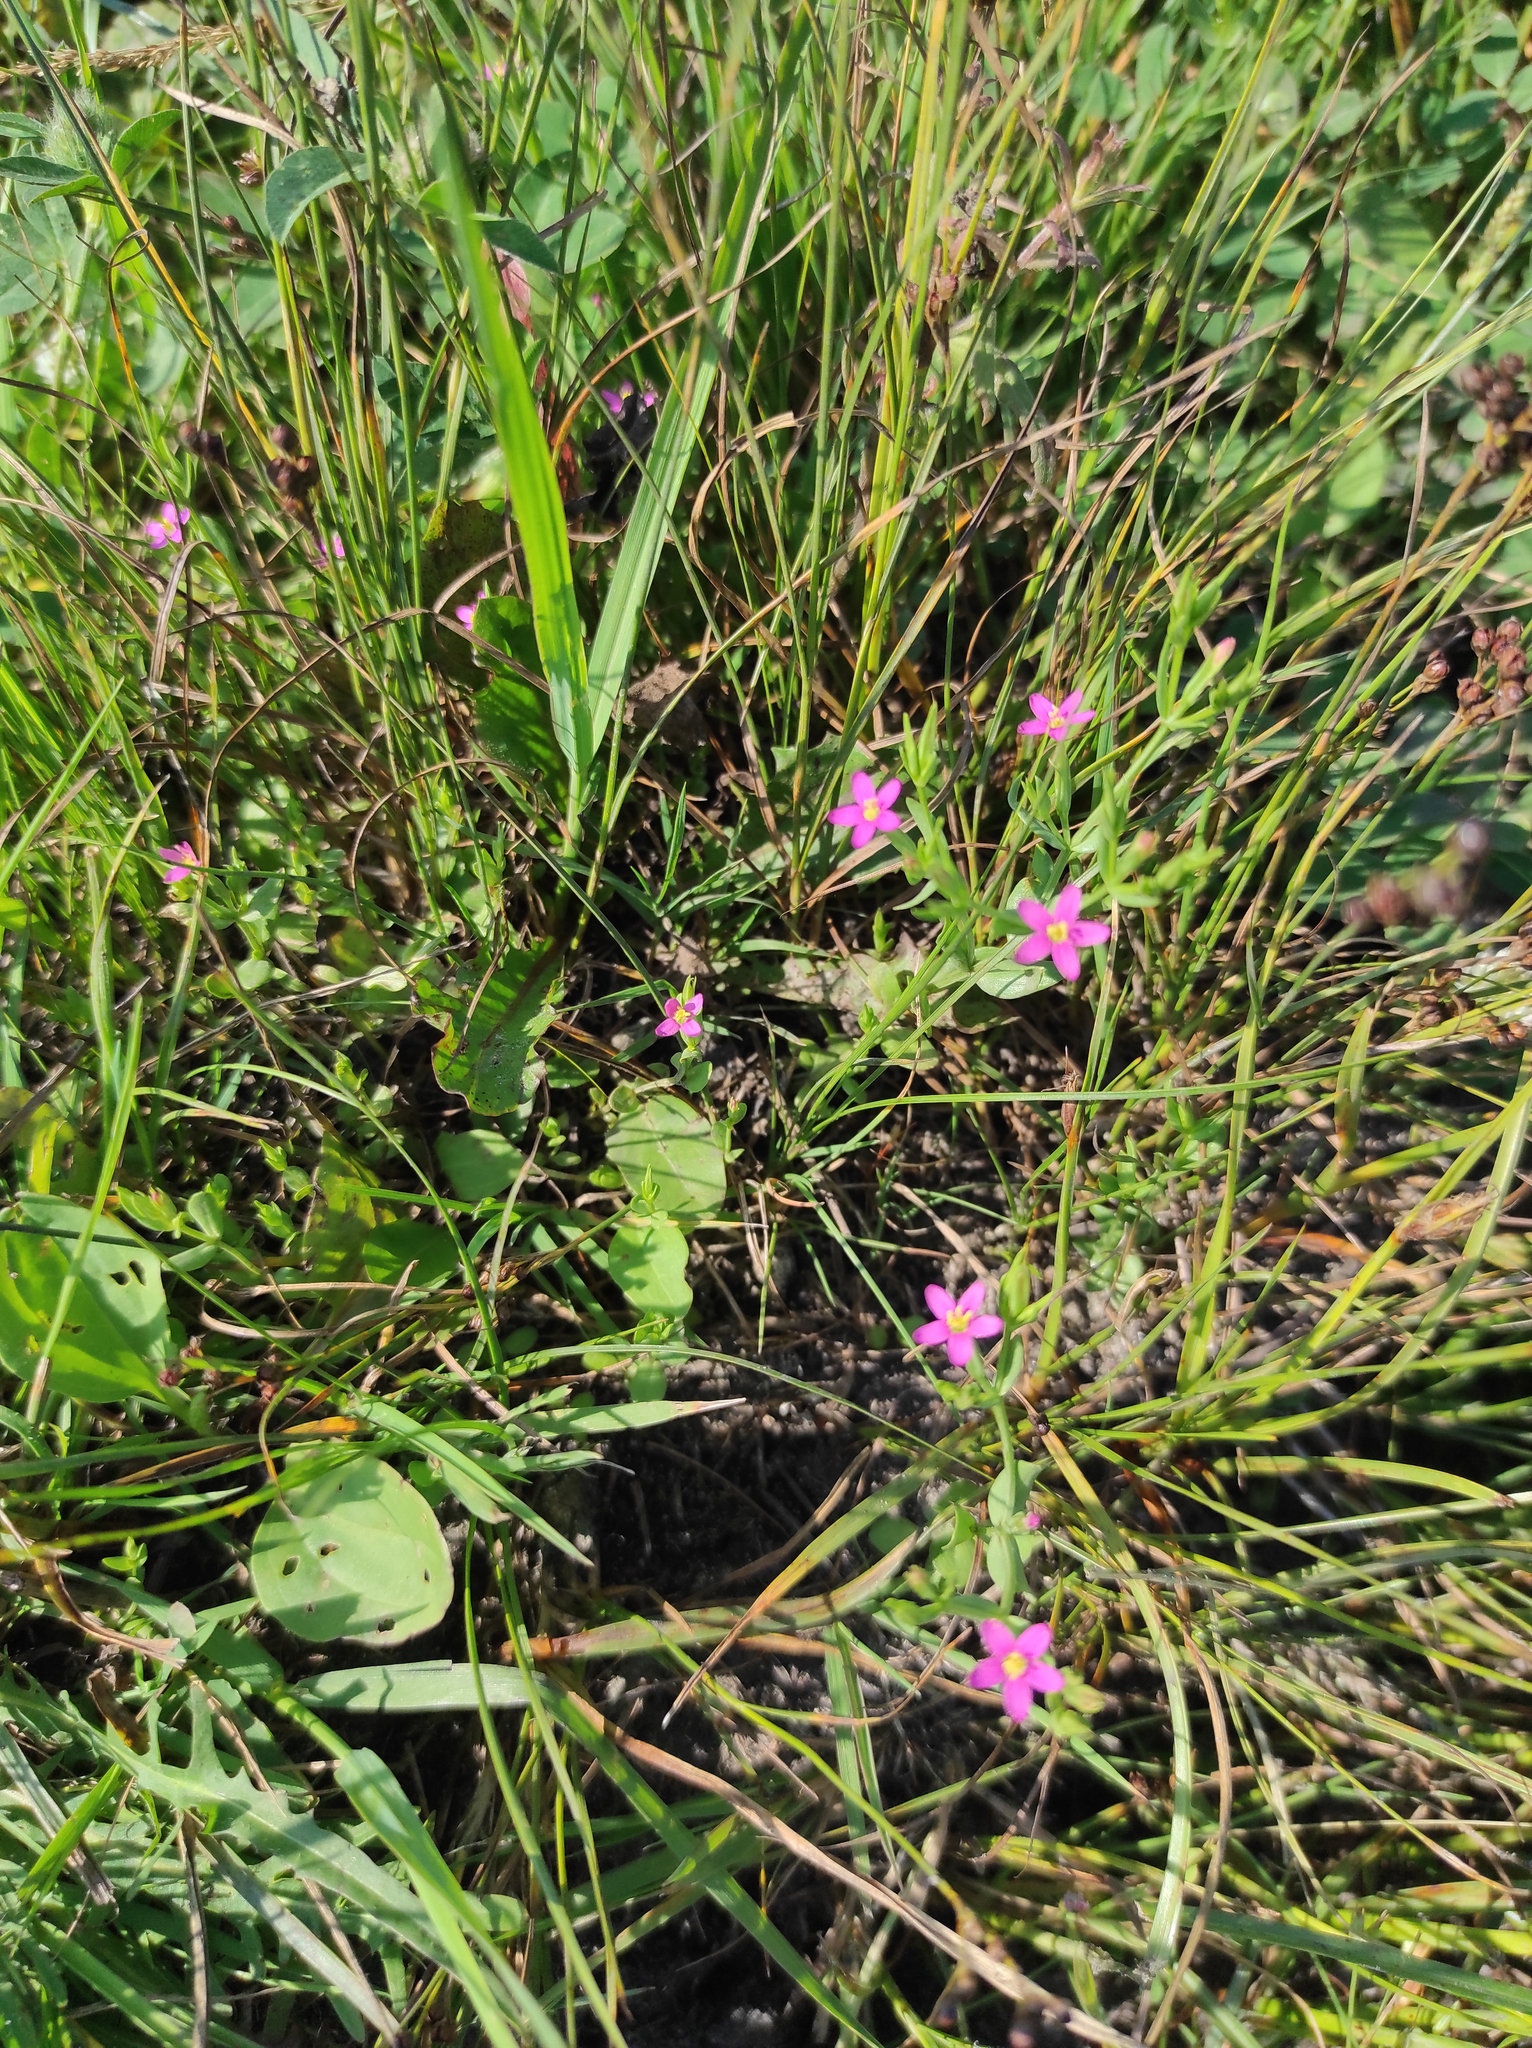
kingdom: Plantae
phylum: Tracheophyta
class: Magnoliopsida
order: Gentianales
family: Gentianaceae
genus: Centaurium
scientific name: Centaurium pulchellum
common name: Lesser centaury
